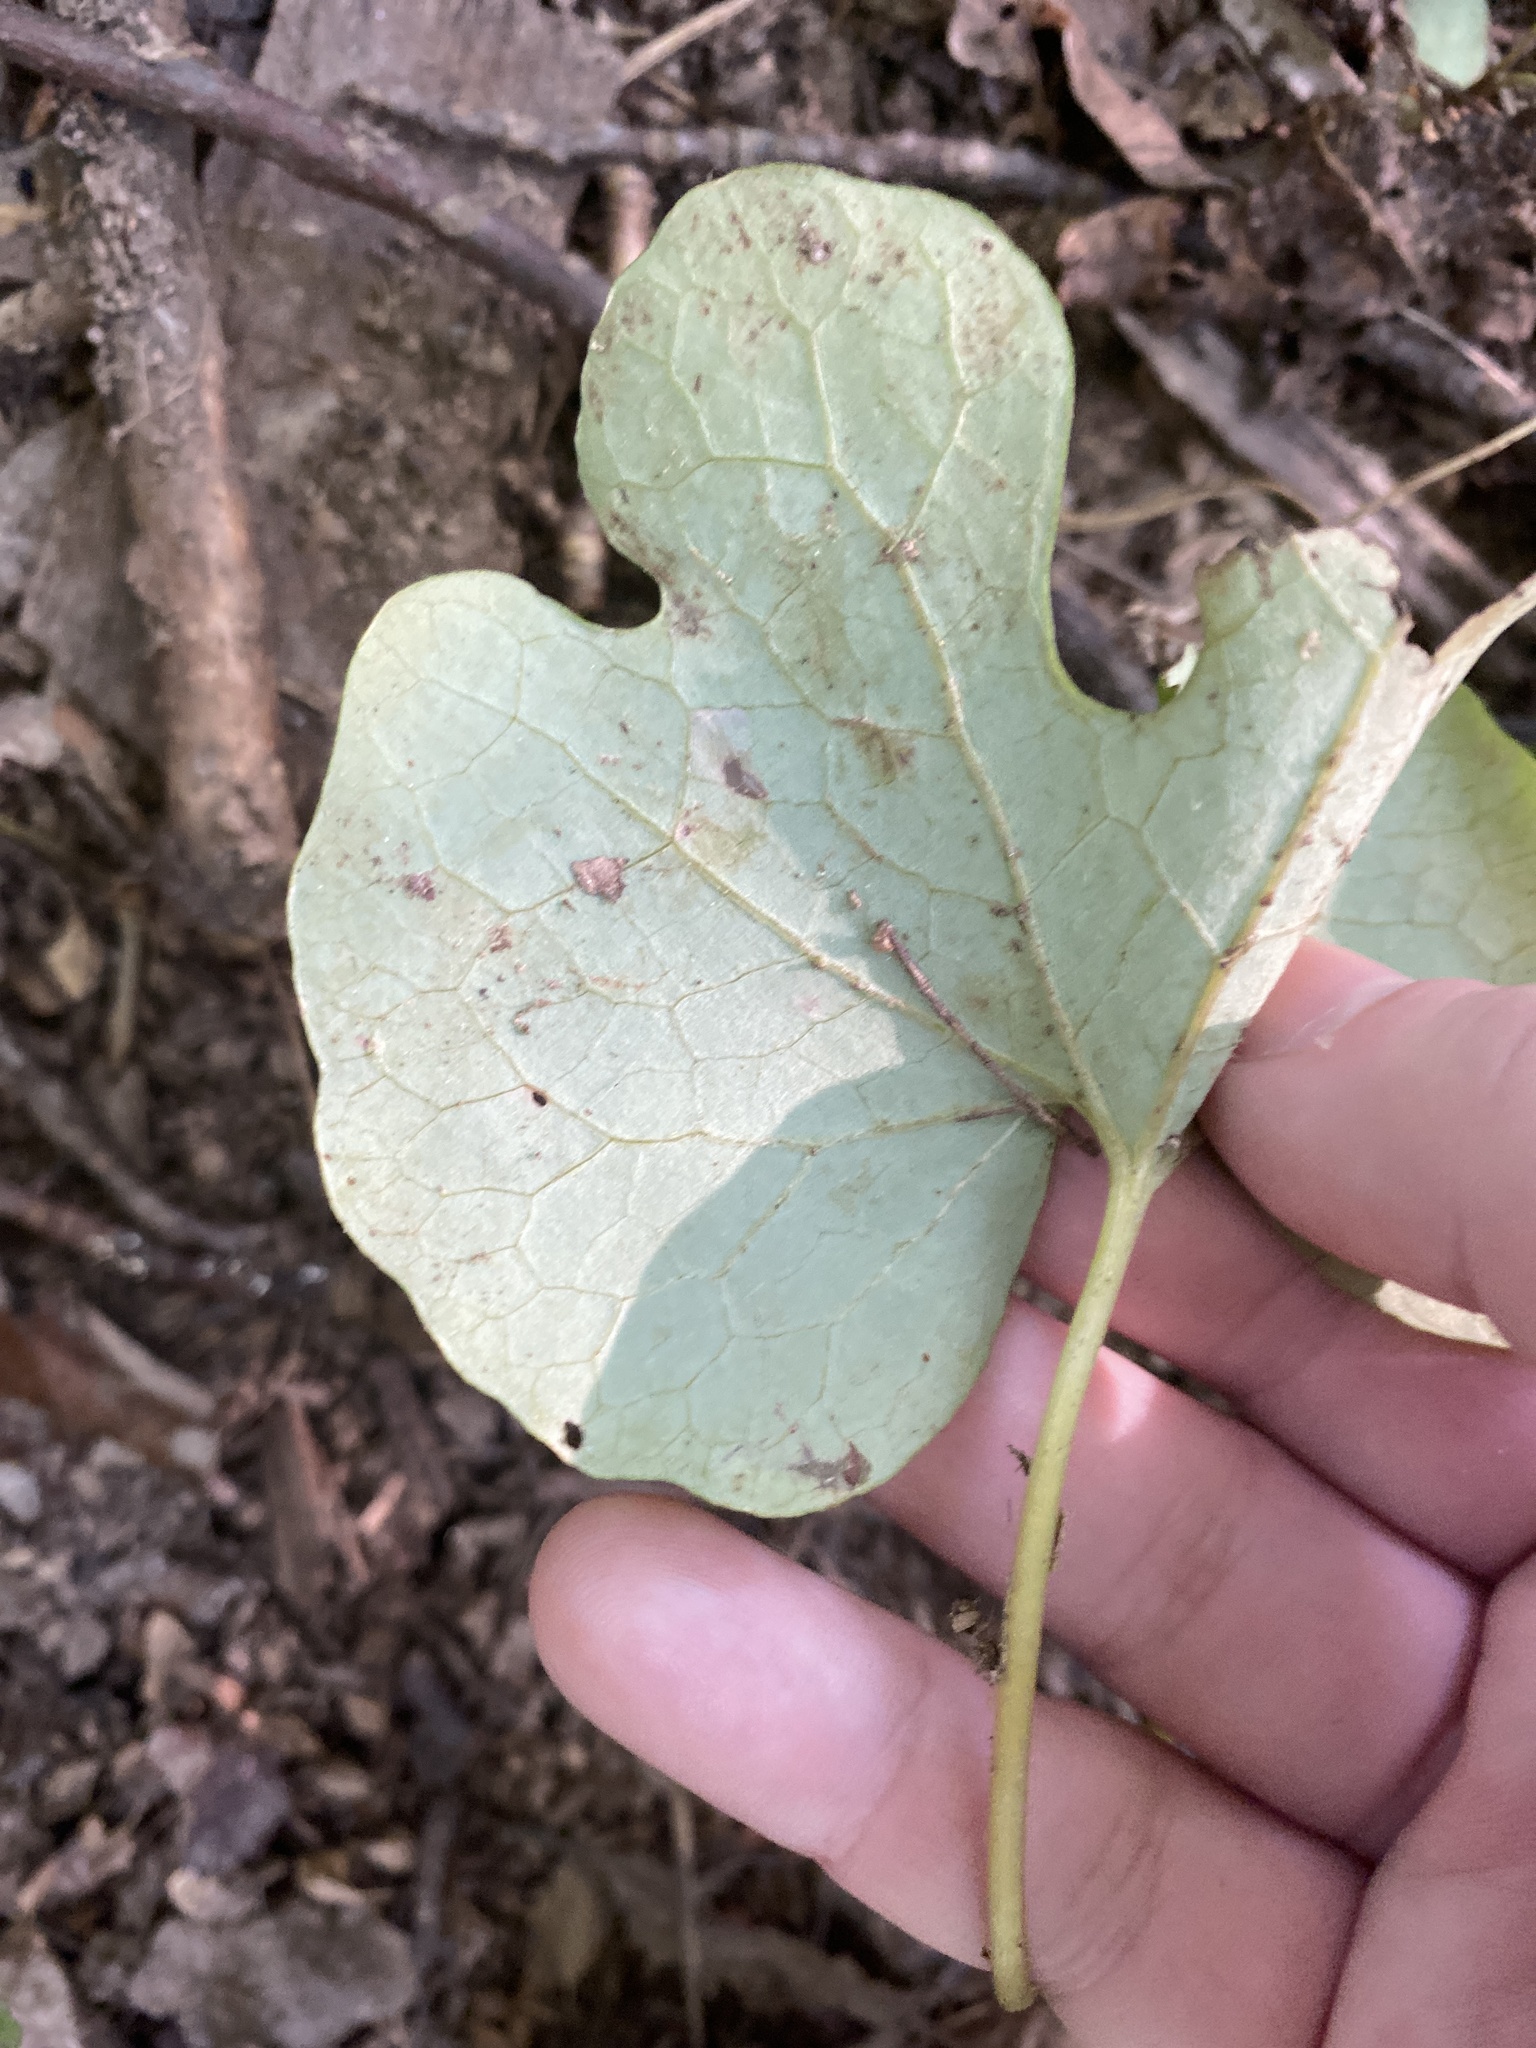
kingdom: Plantae
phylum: Tracheophyta
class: Magnoliopsida
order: Ranunculales
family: Papaveraceae
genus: Sanguinaria
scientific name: Sanguinaria canadensis
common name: Bloodroot
